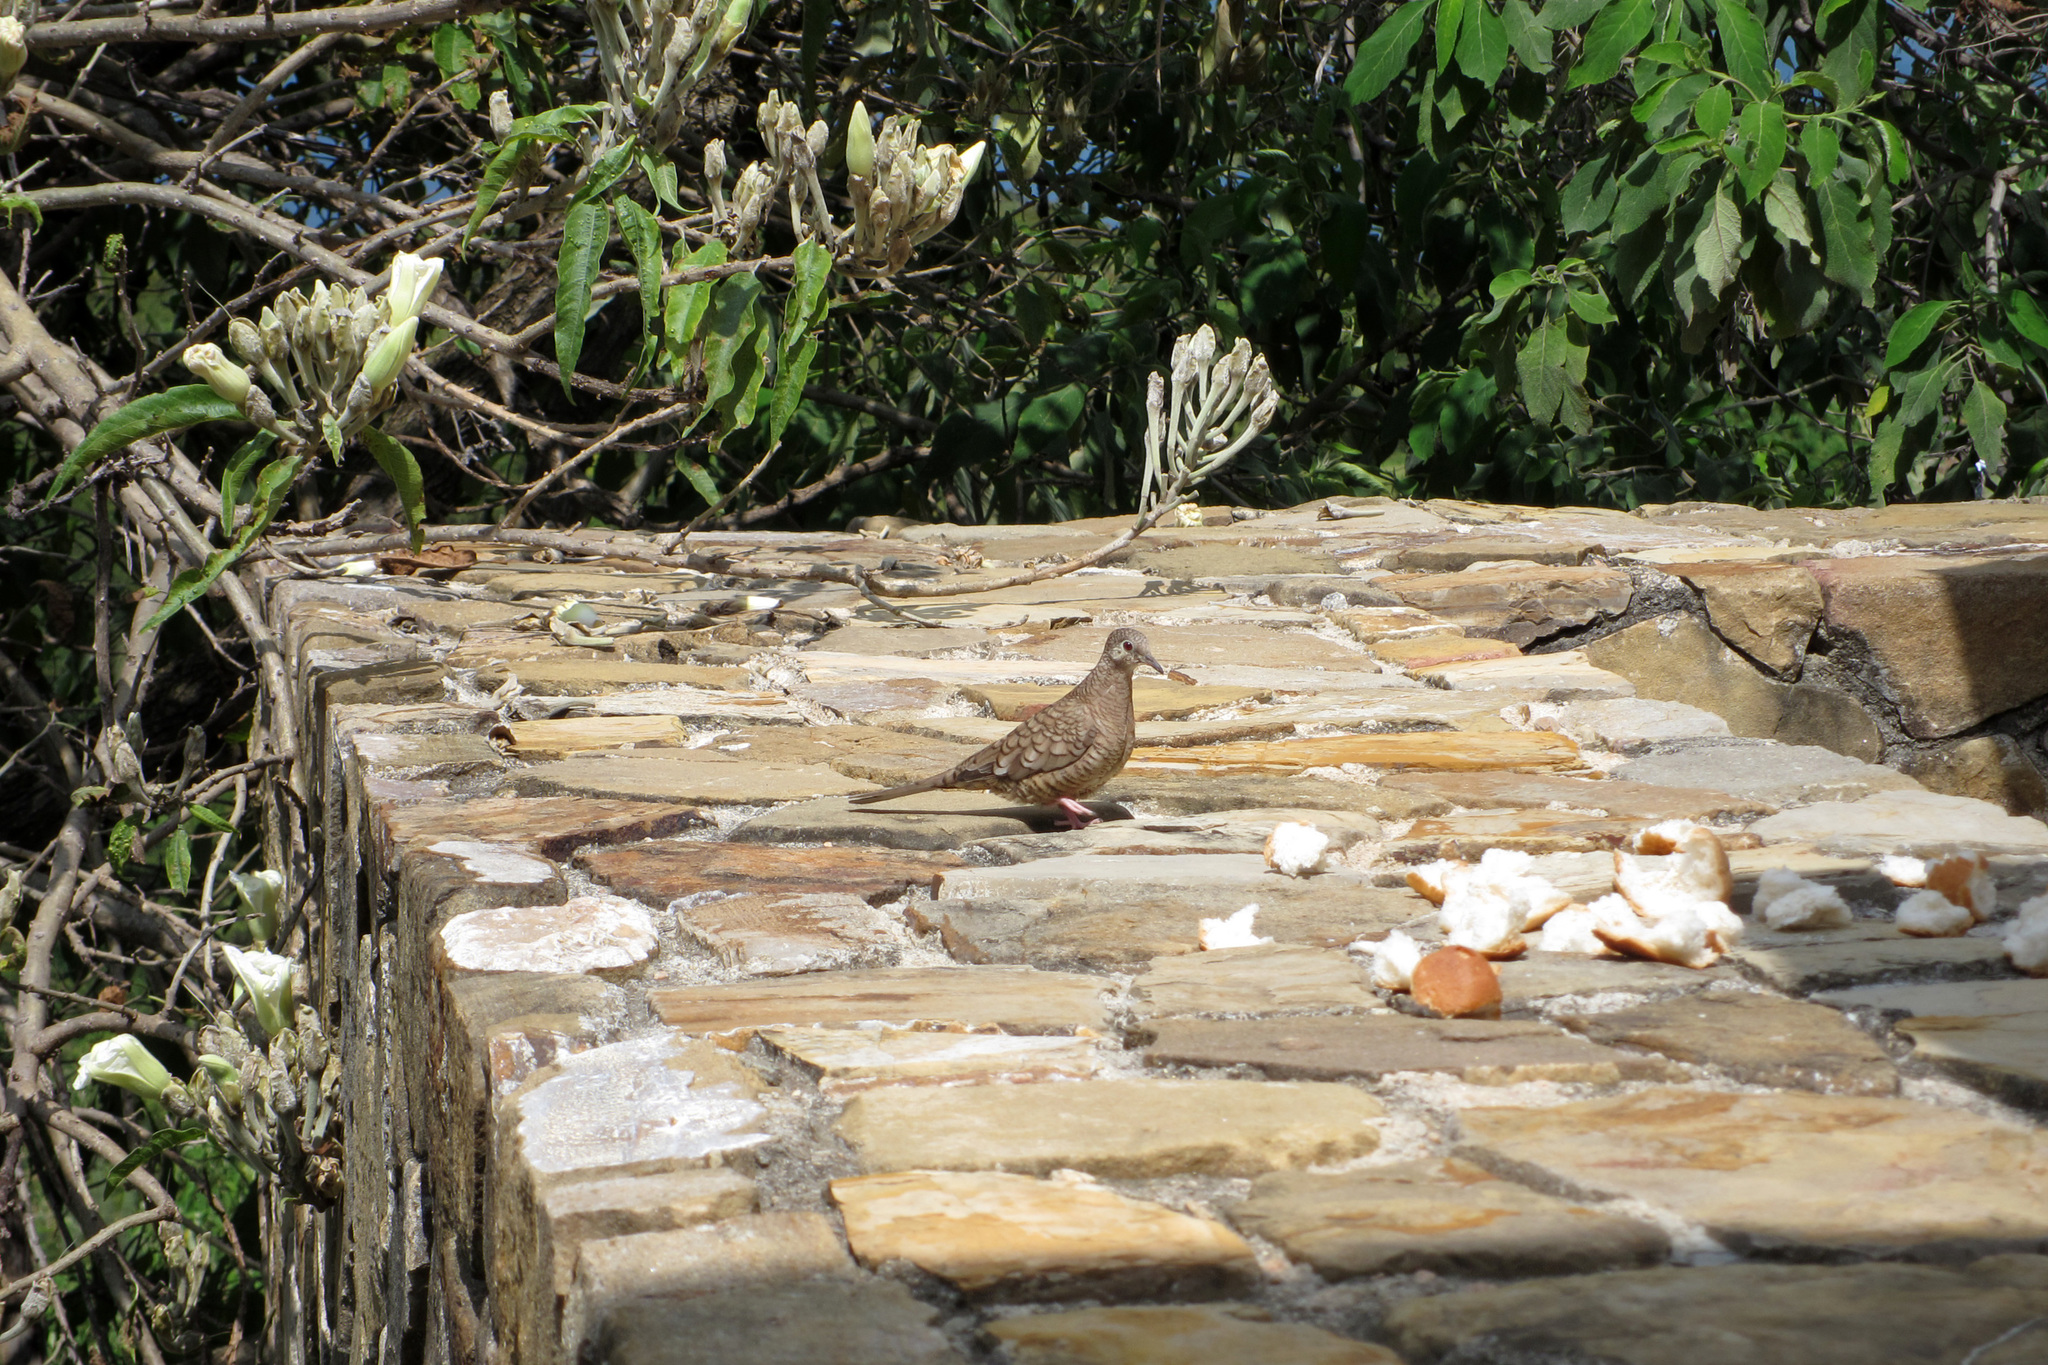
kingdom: Animalia
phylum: Chordata
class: Aves
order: Columbiformes
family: Columbidae
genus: Columbina
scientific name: Columbina inca
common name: Inca dove
